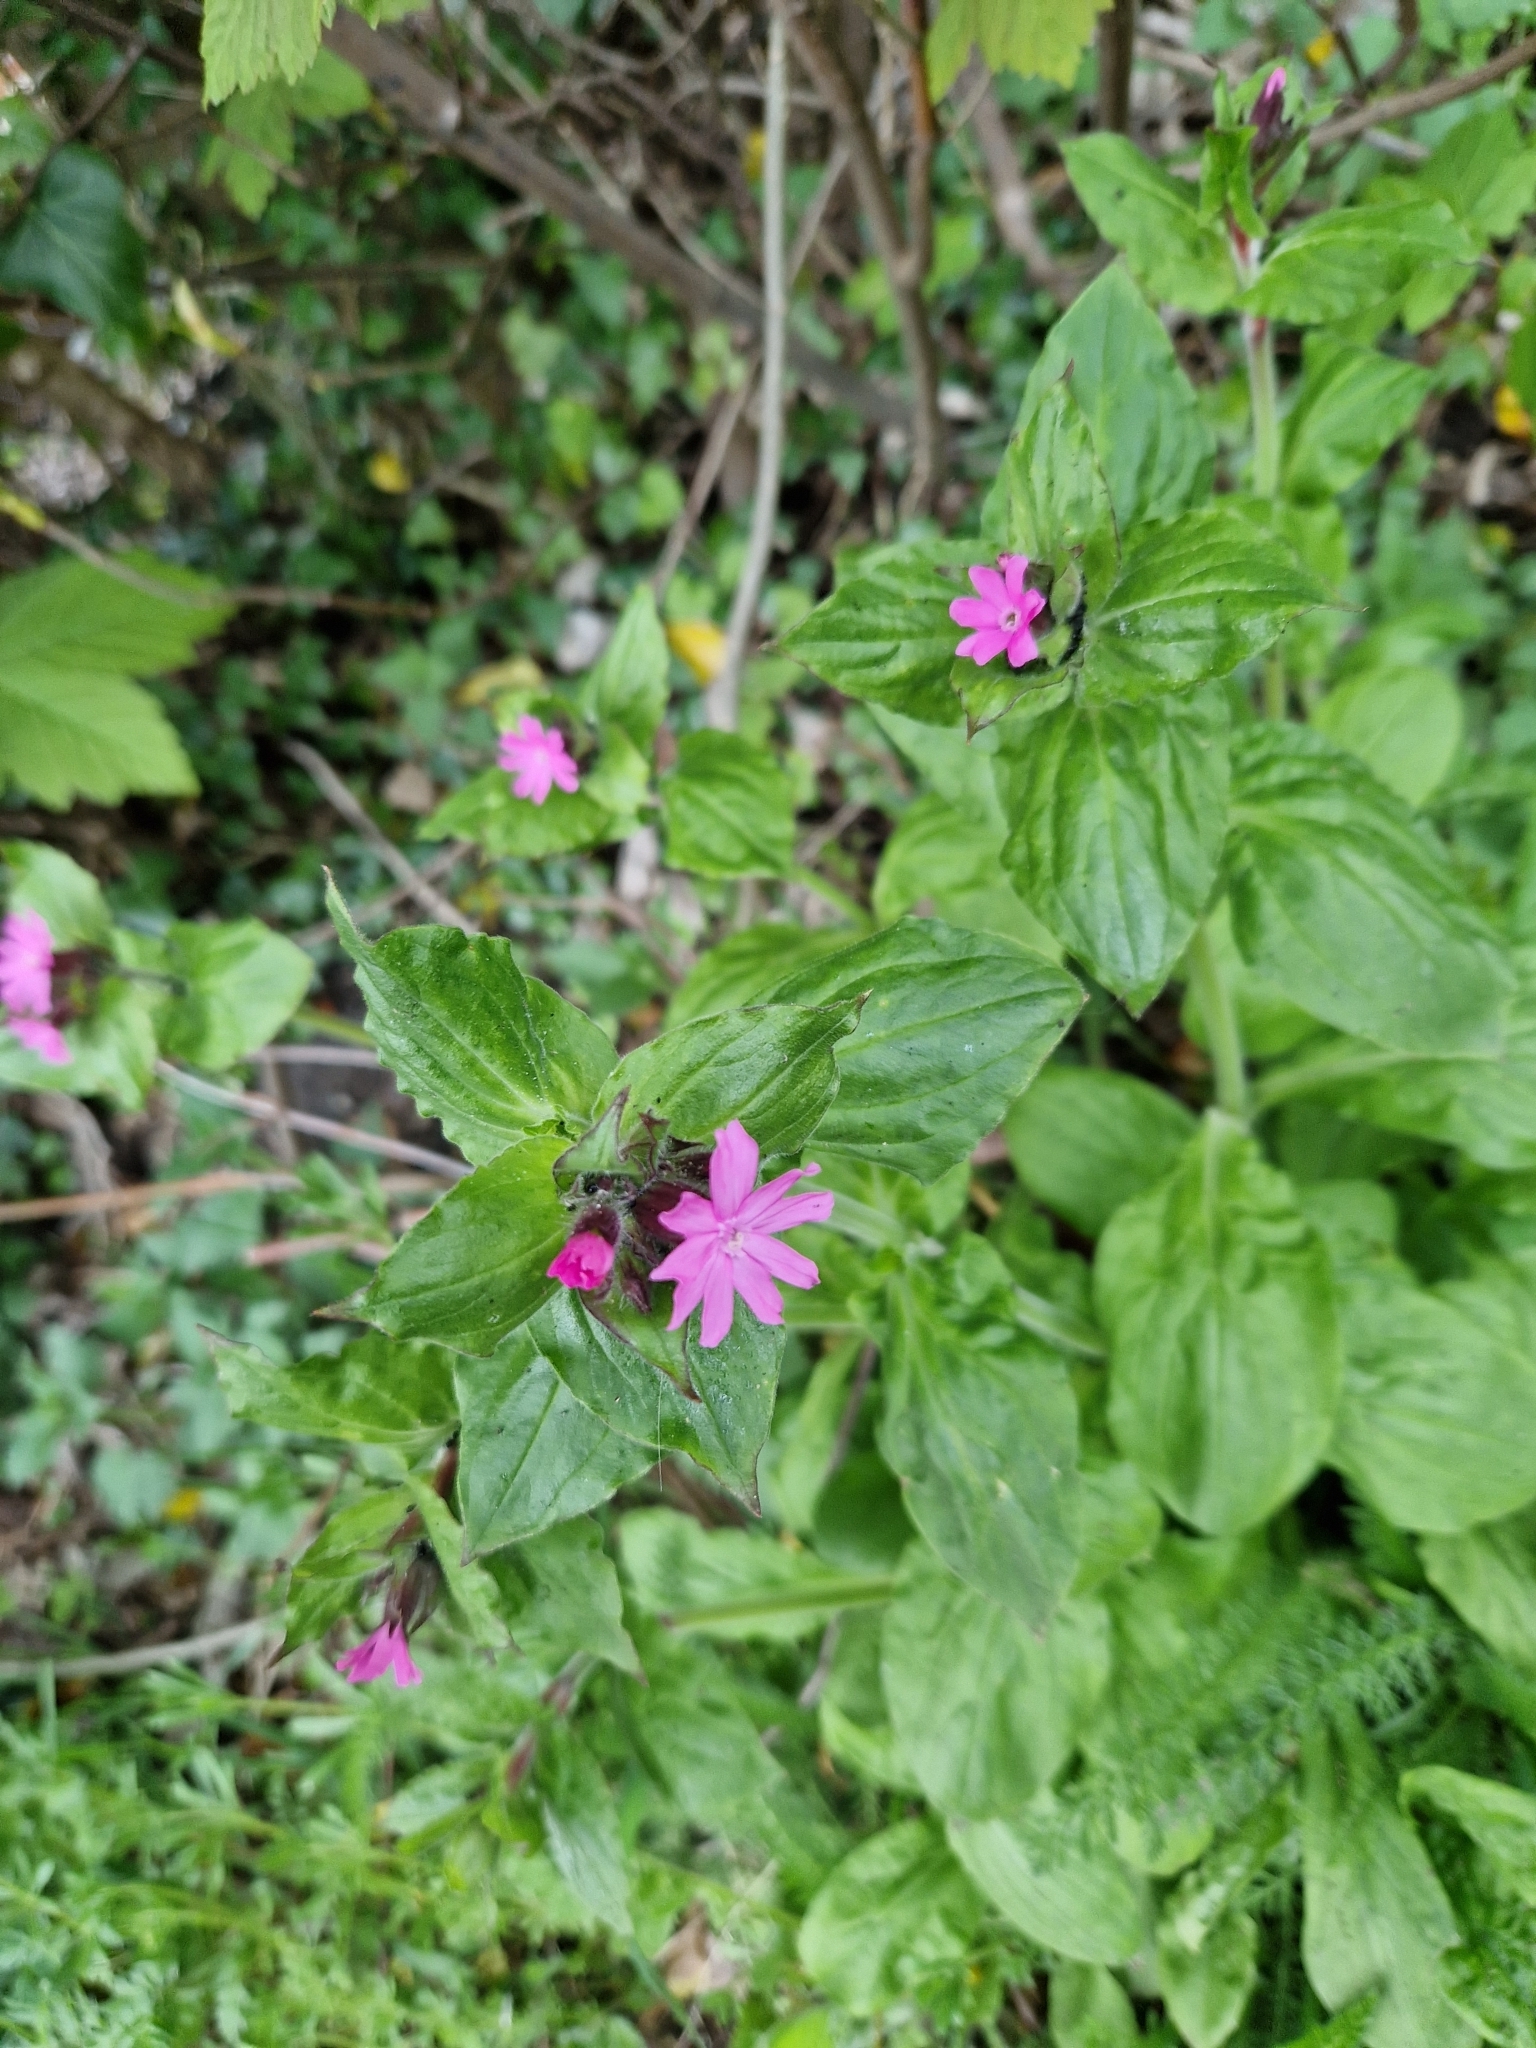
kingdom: Plantae
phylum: Tracheophyta
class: Magnoliopsida
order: Caryophyllales
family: Caryophyllaceae
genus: Silene
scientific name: Silene dioica
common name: Red campion
